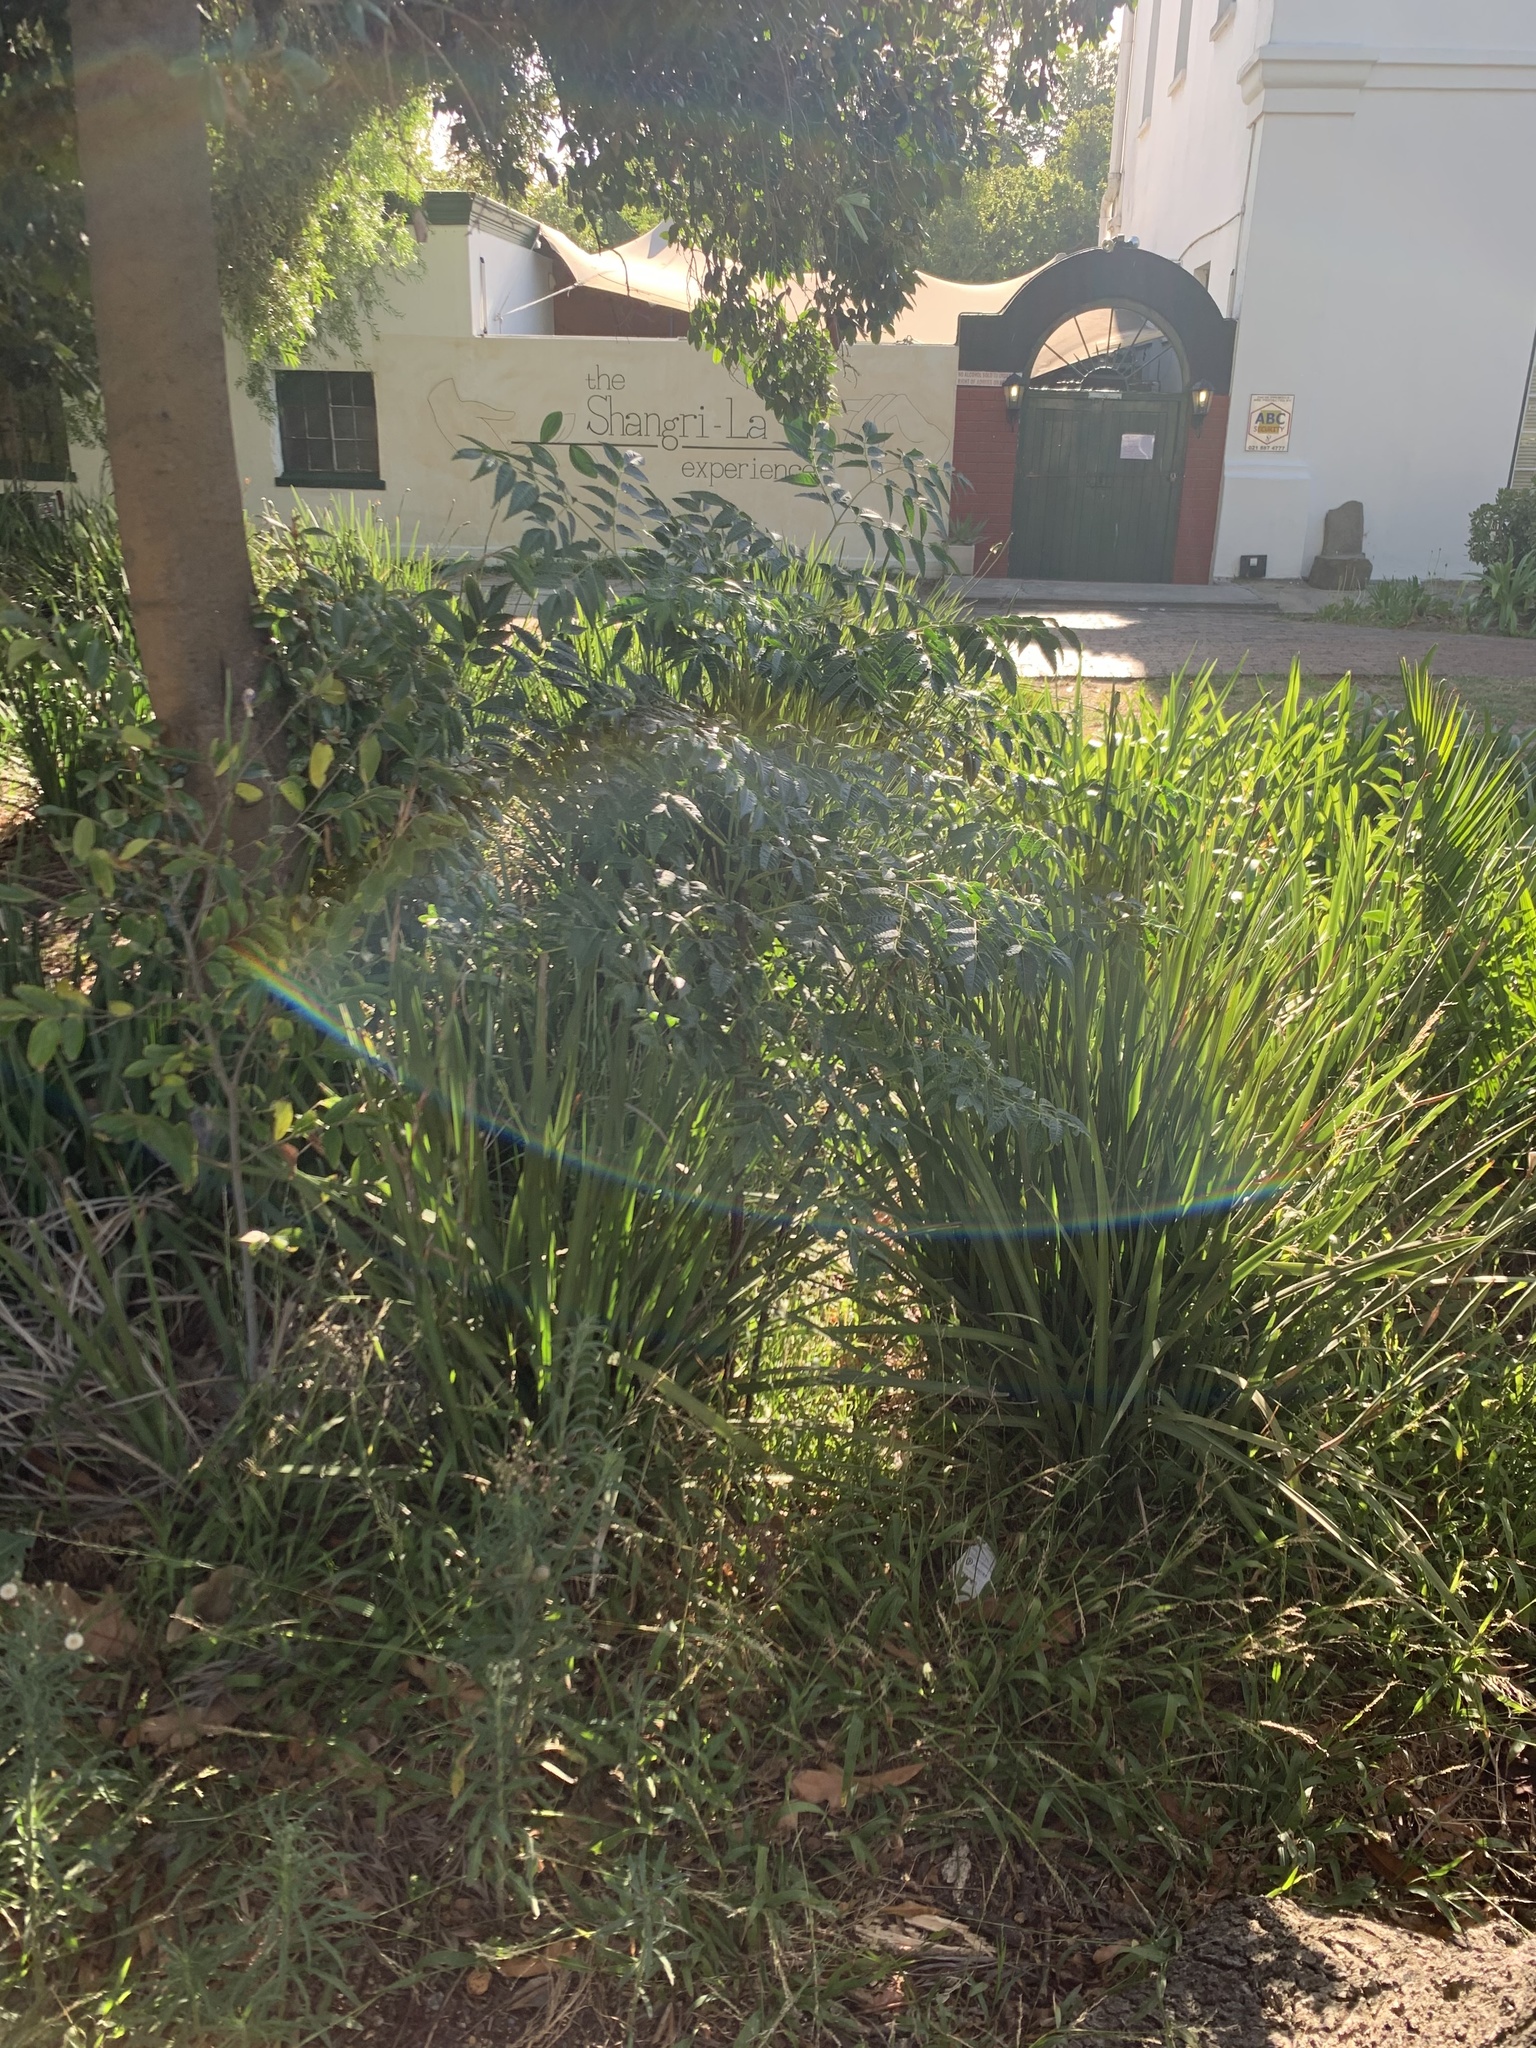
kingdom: Plantae
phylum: Tracheophyta
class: Magnoliopsida
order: Sapindales
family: Meliaceae
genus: Melia
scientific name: Melia azedarach
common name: Chinaberrytree
